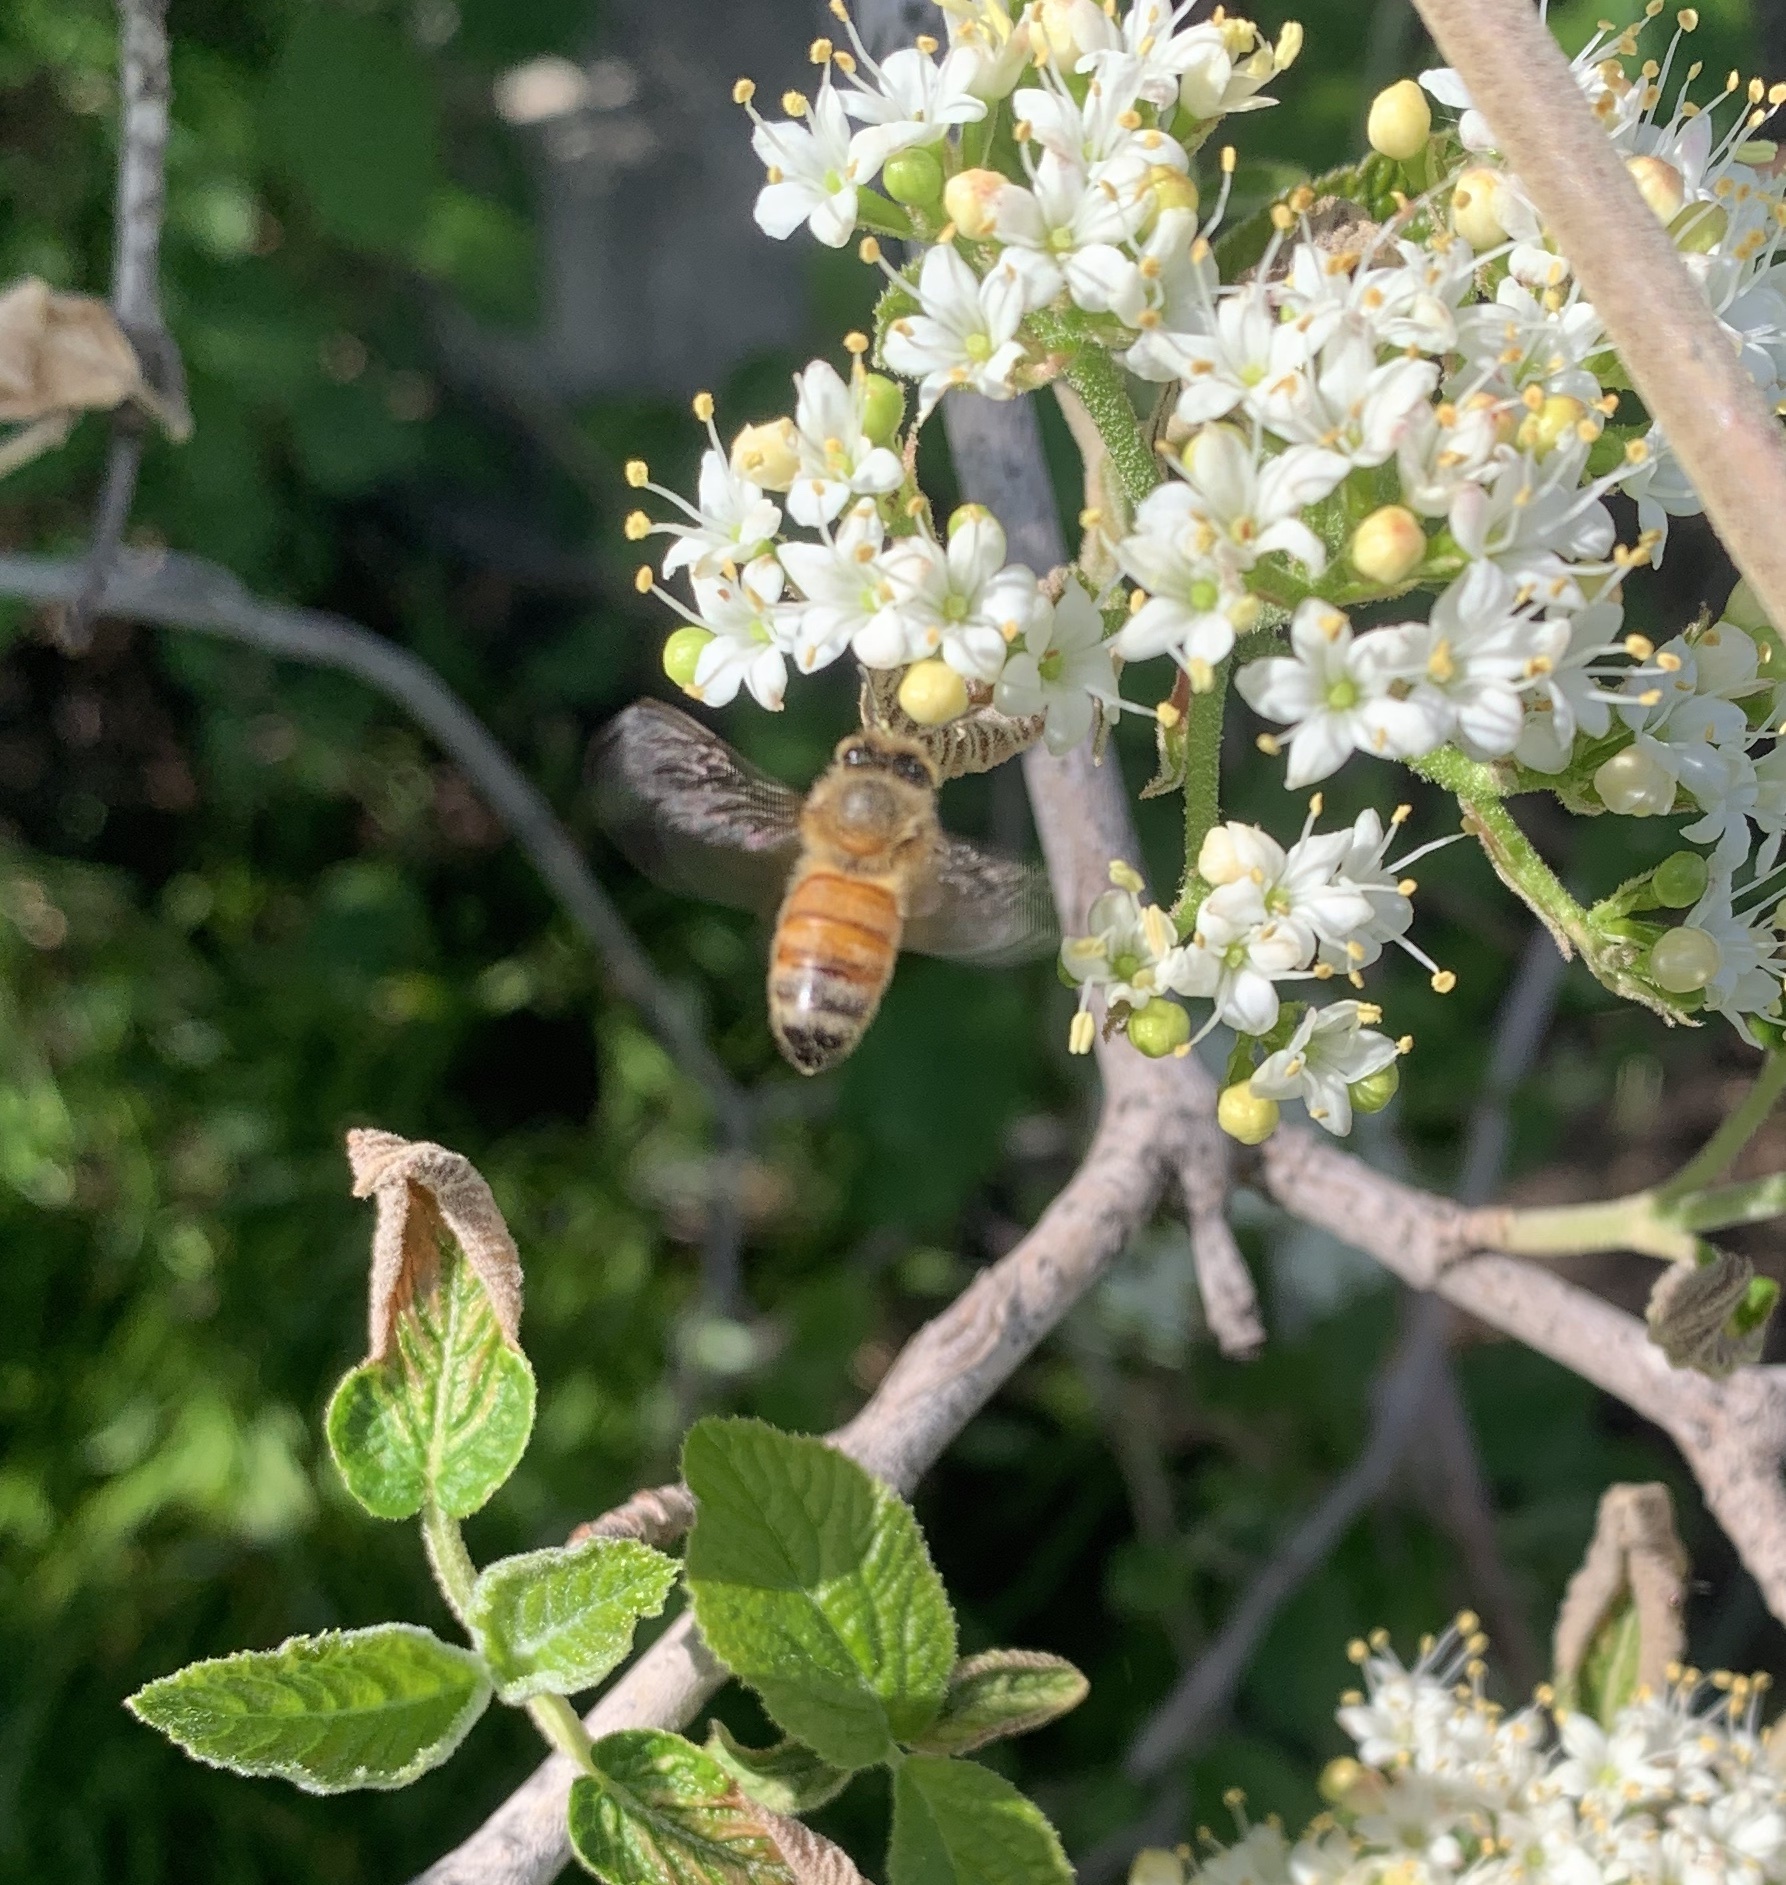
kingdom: Animalia
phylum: Arthropoda
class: Insecta
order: Hymenoptera
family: Apidae
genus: Apis
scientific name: Apis mellifera
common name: Honey bee
